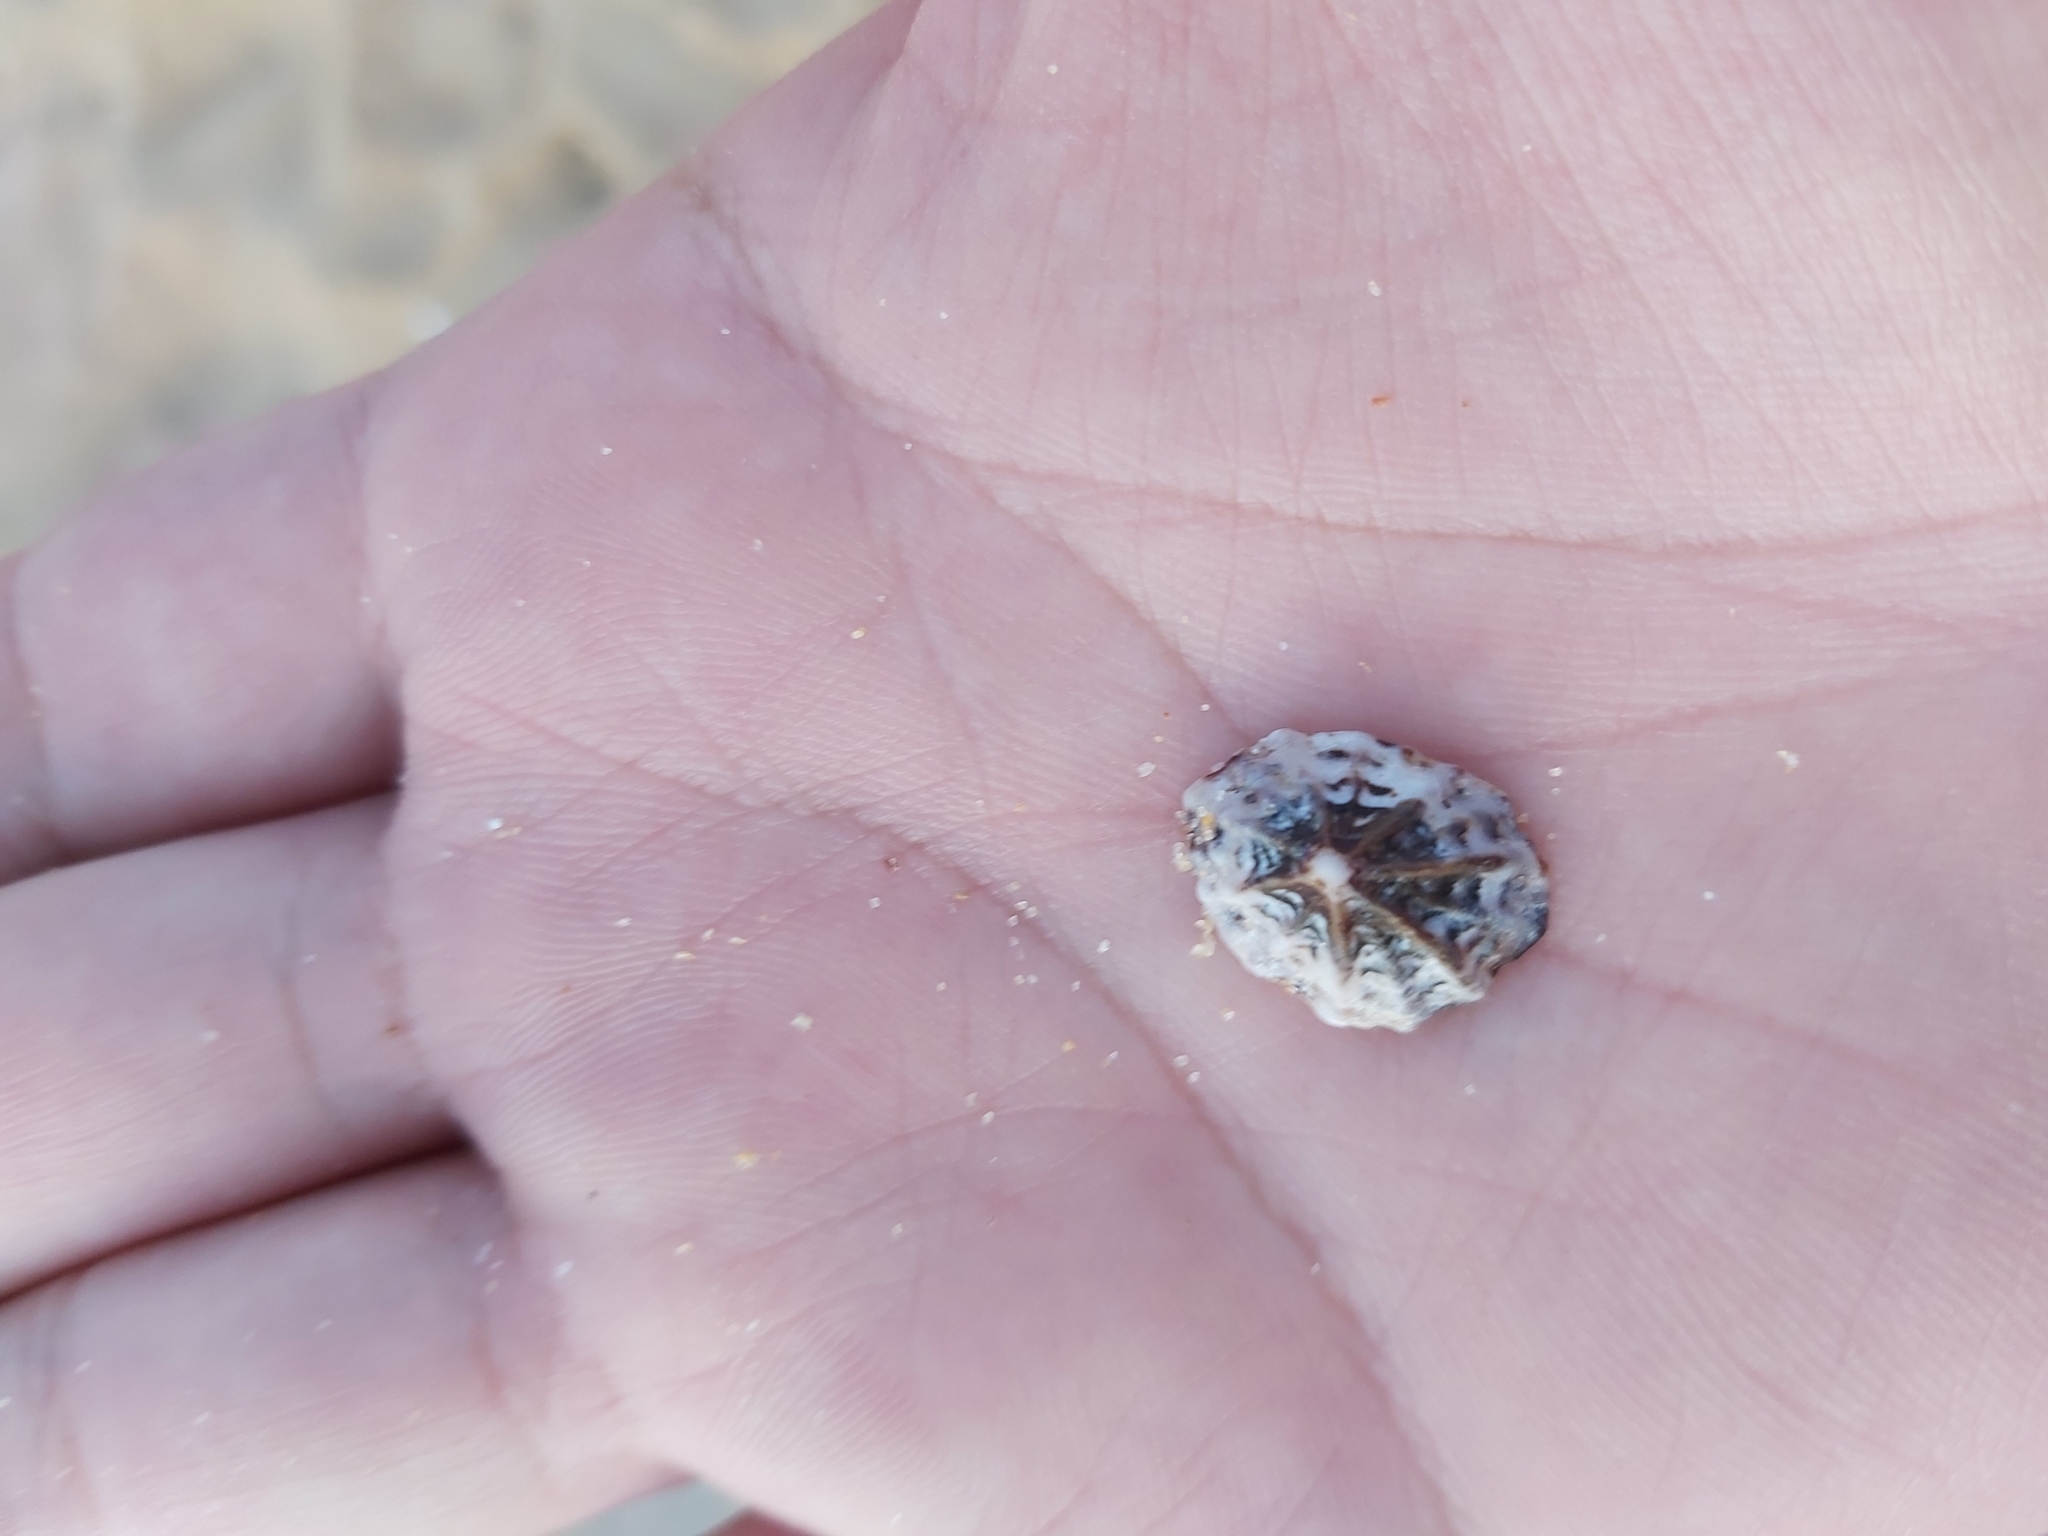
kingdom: Animalia
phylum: Mollusca
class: Gastropoda
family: Lottiidae
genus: Patelloida
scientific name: Patelloida alticostata
